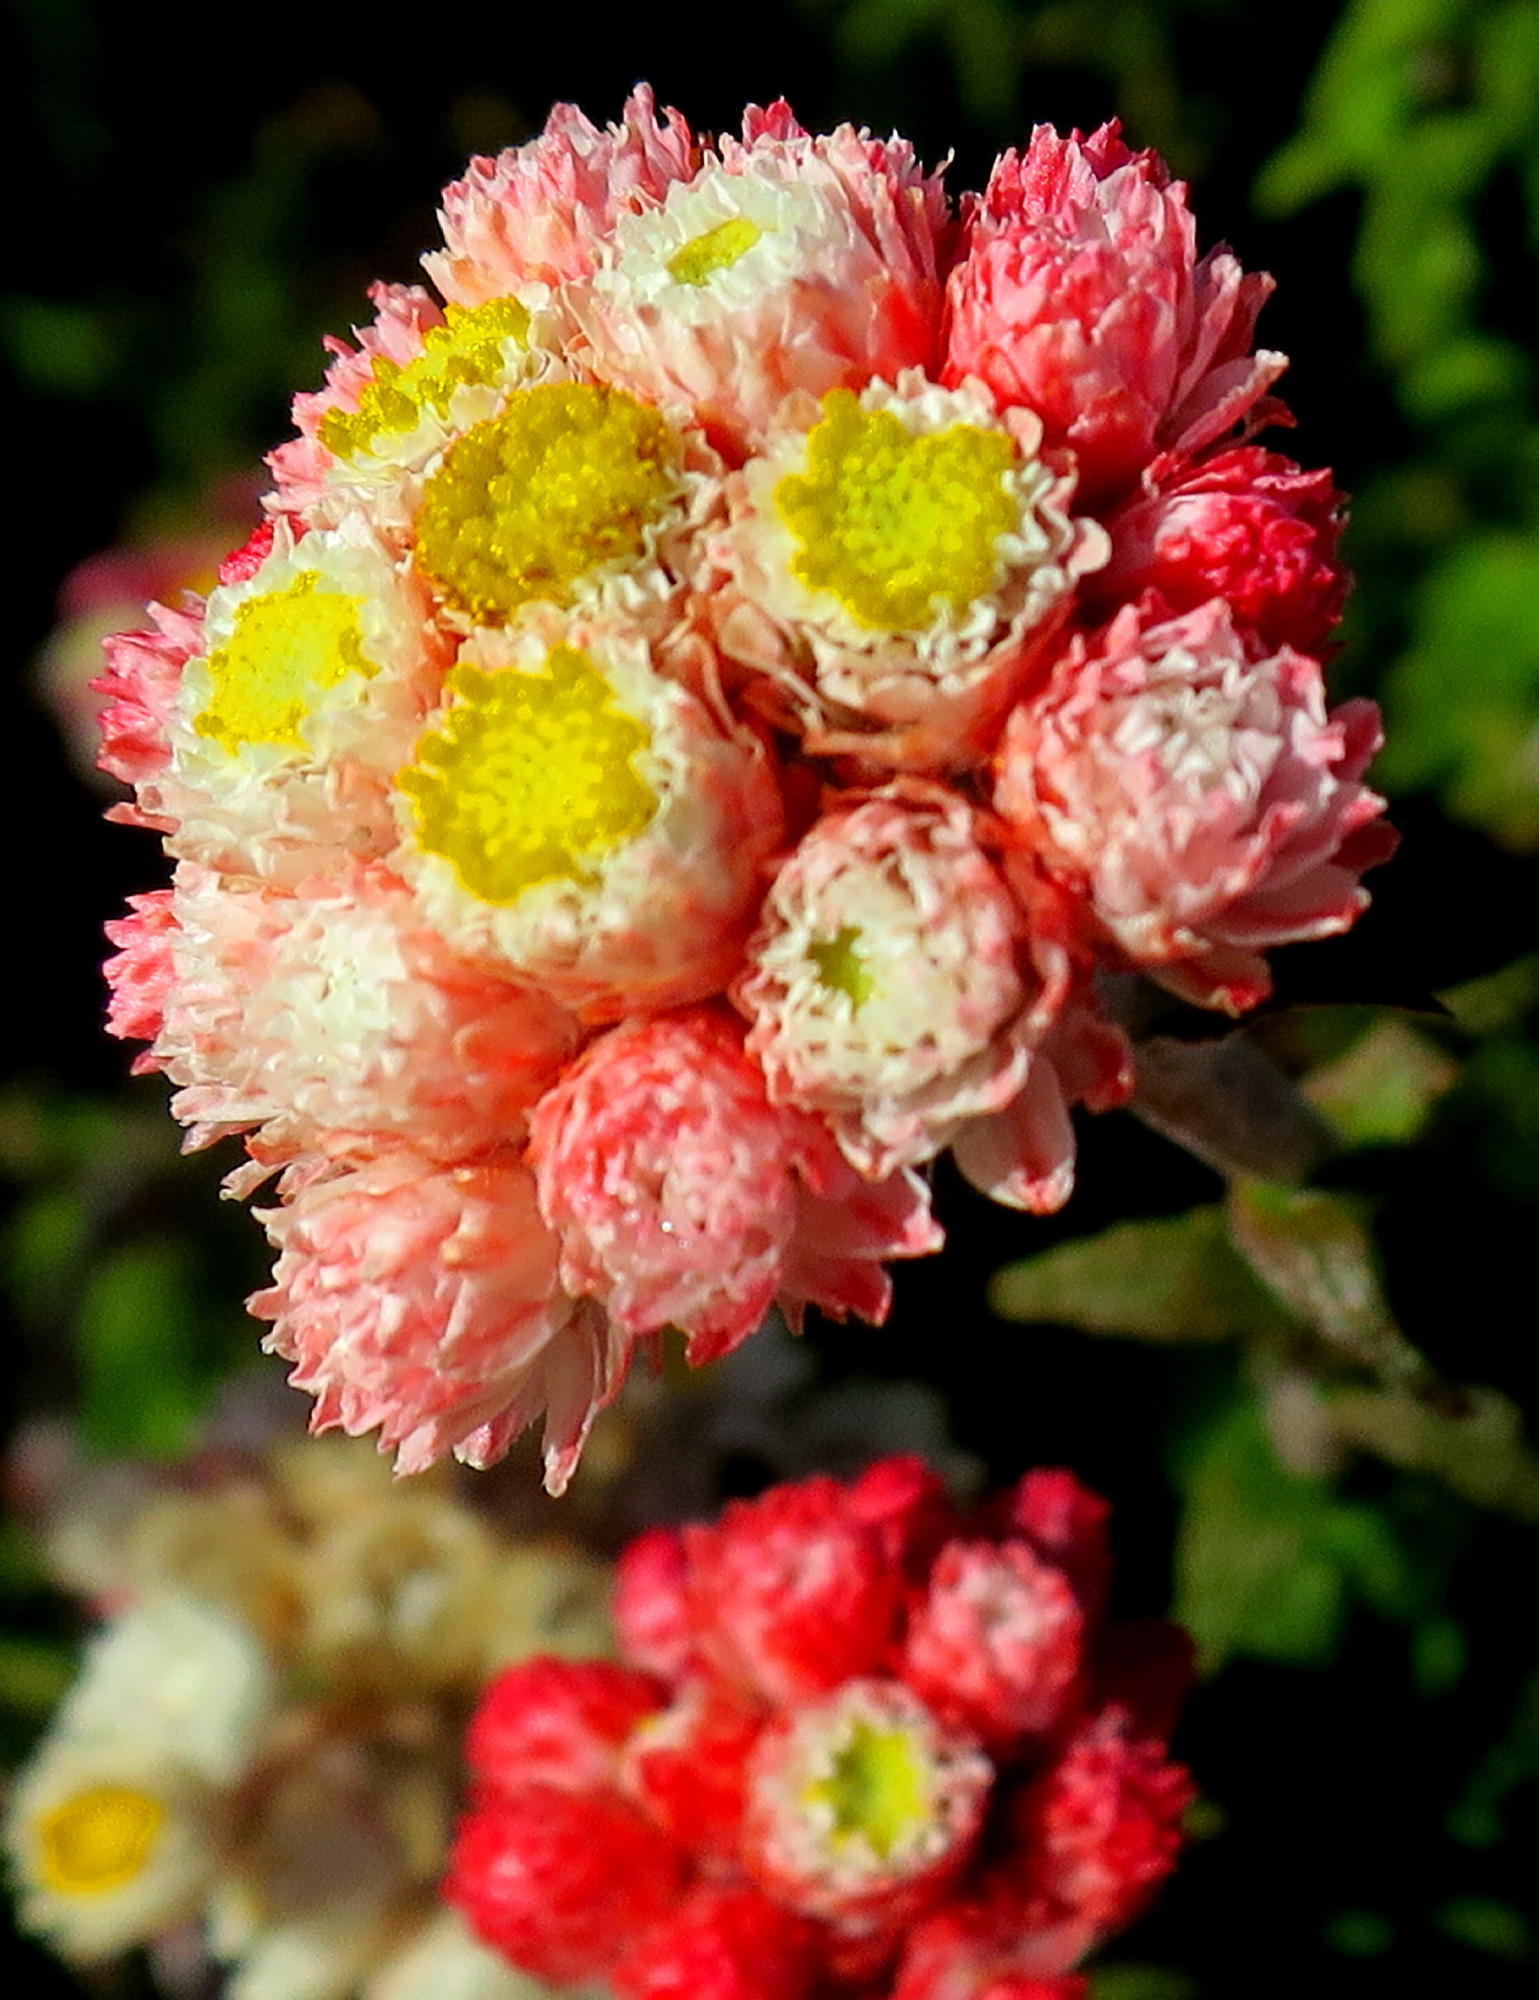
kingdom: Plantae
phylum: Tracheophyta
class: Magnoliopsida
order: Asterales
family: Asteraceae
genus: Helichrysum
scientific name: Helichrysum felinum
